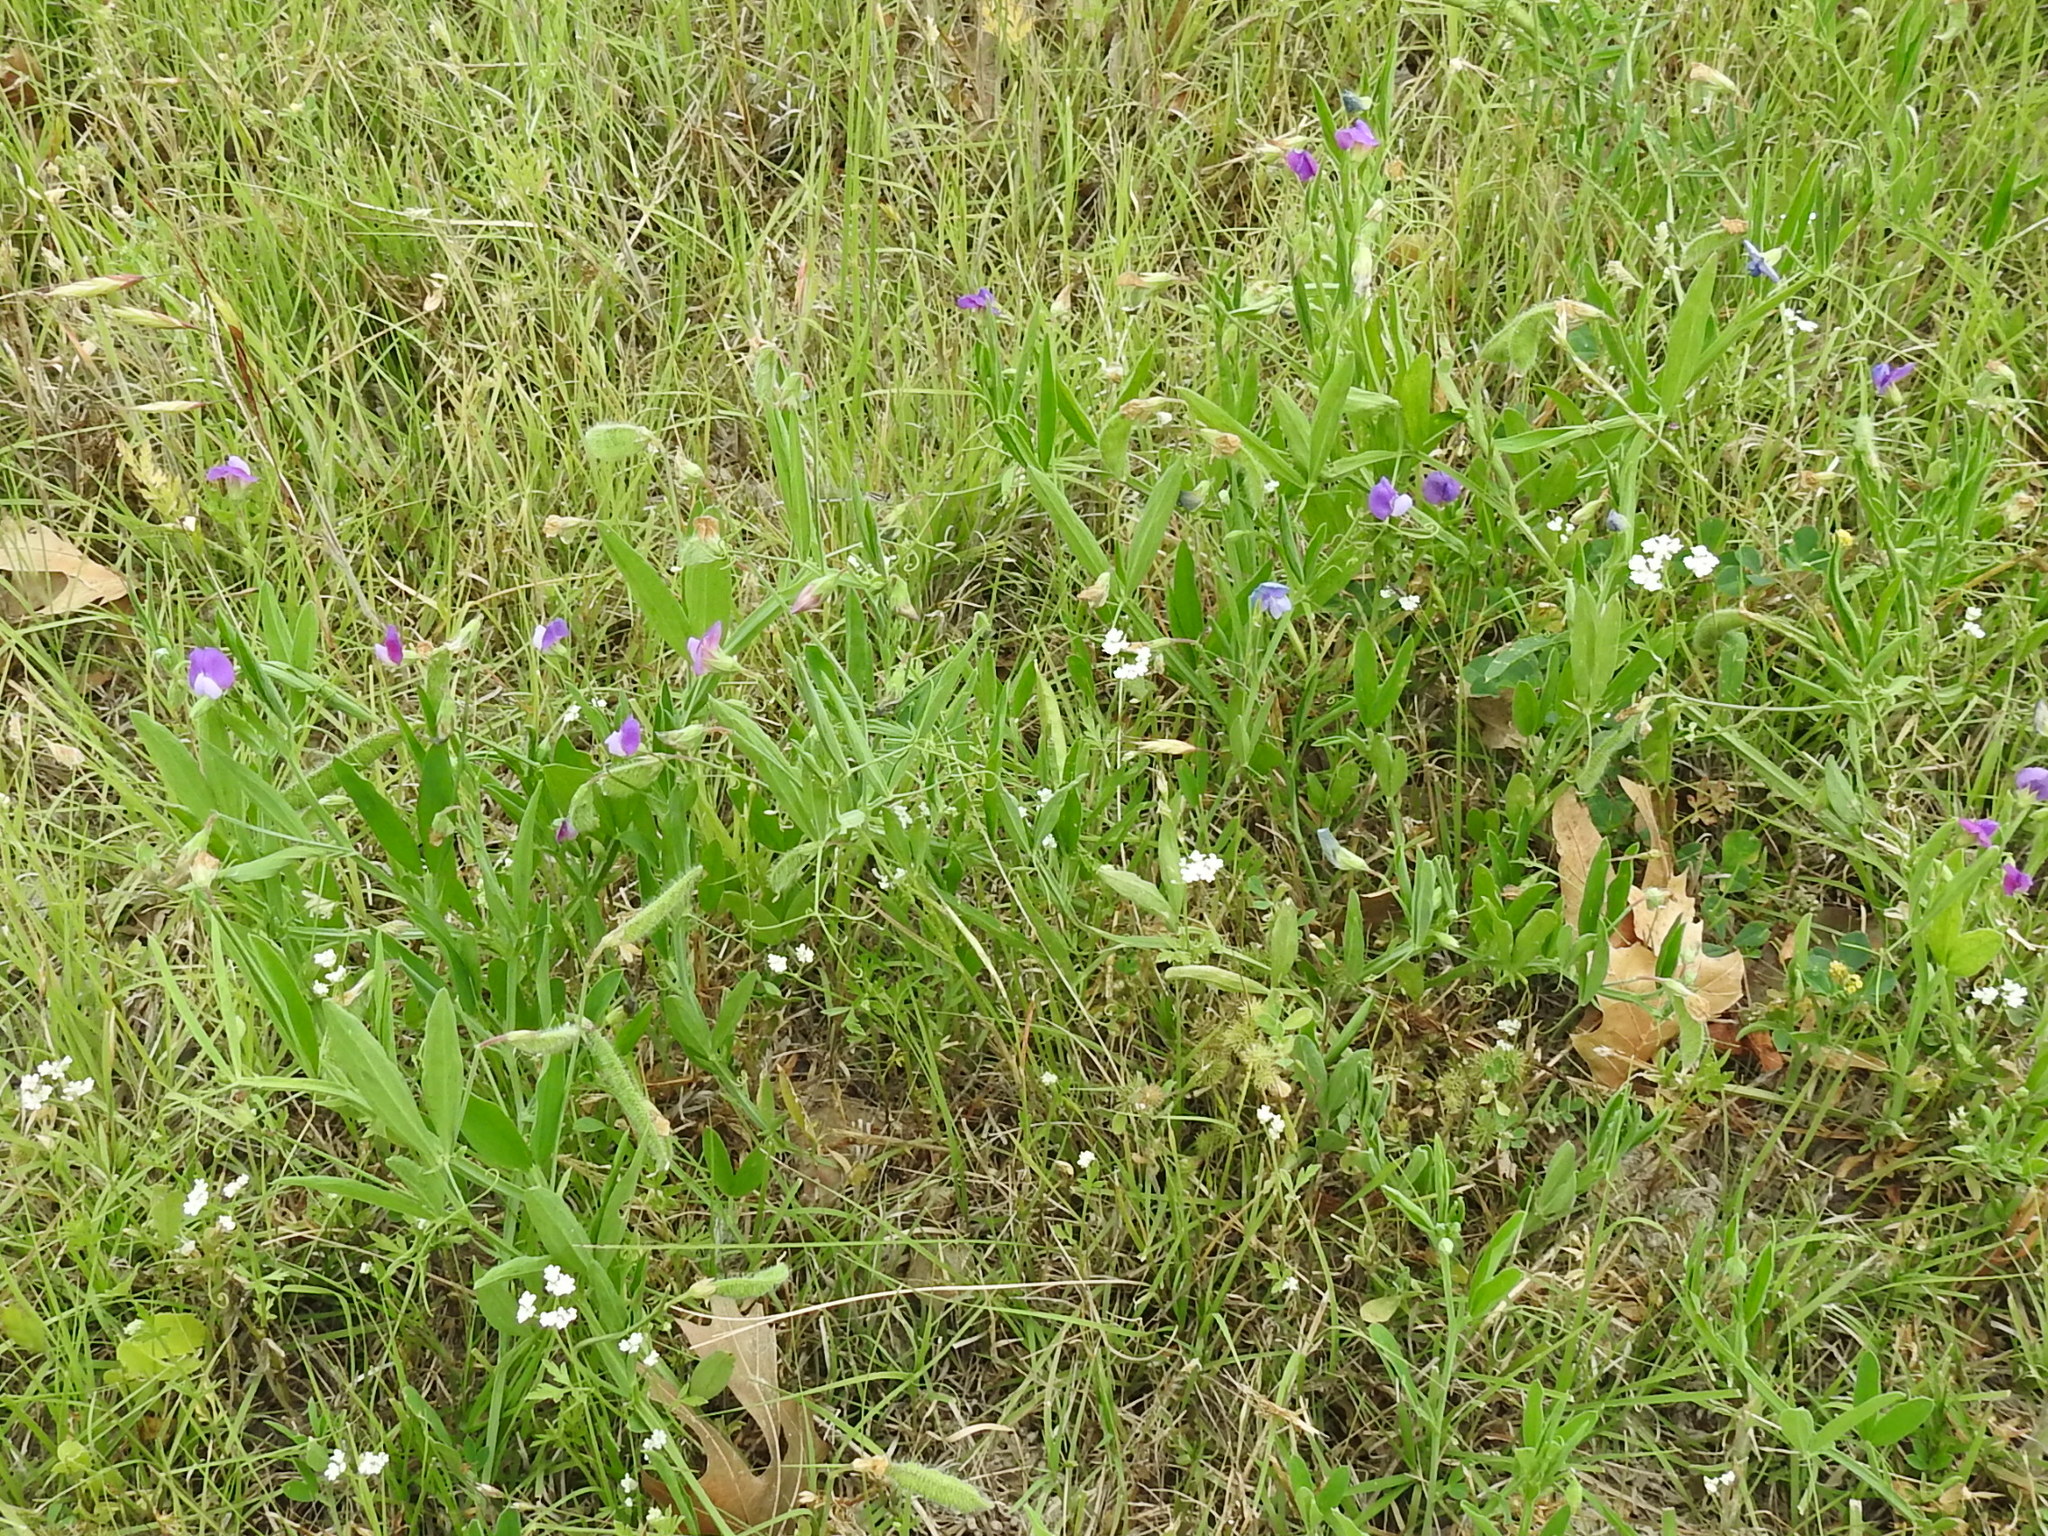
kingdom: Plantae
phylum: Tracheophyta
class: Magnoliopsida
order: Fabales
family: Fabaceae
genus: Lathyrus
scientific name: Lathyrus hirsutus
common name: Hairy vetchling
